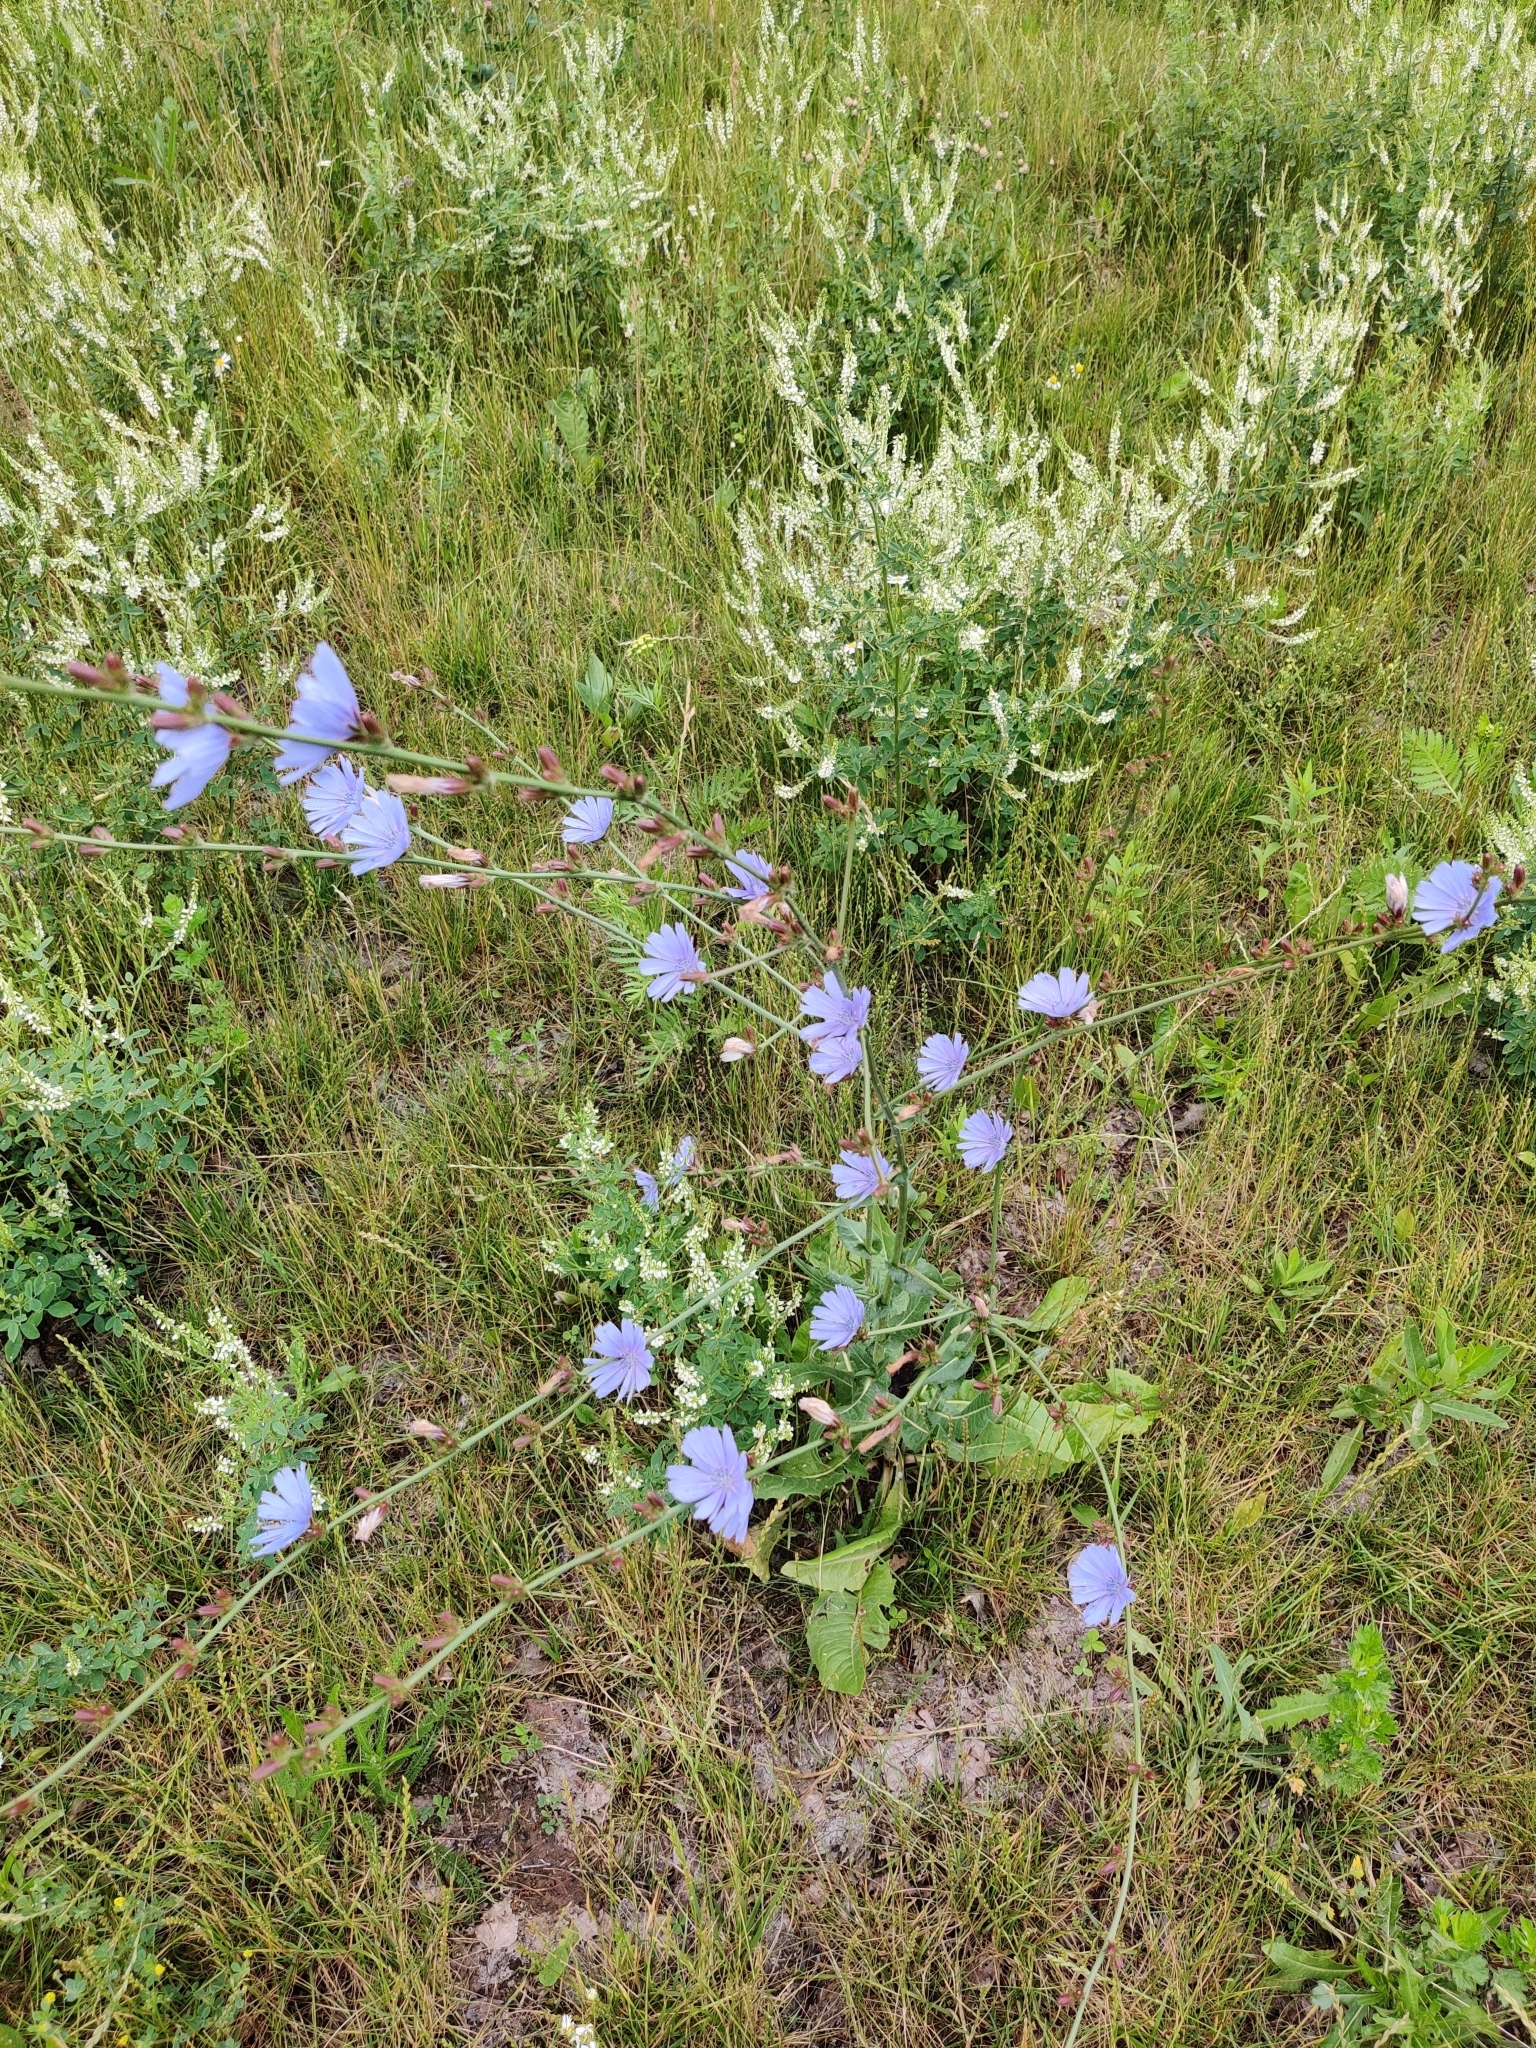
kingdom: Plantae
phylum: Tracheophyta
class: Magnoliopsida
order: Asterales
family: Asteraceae
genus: Cichorium
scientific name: Cichorium intybus
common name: Chicory
